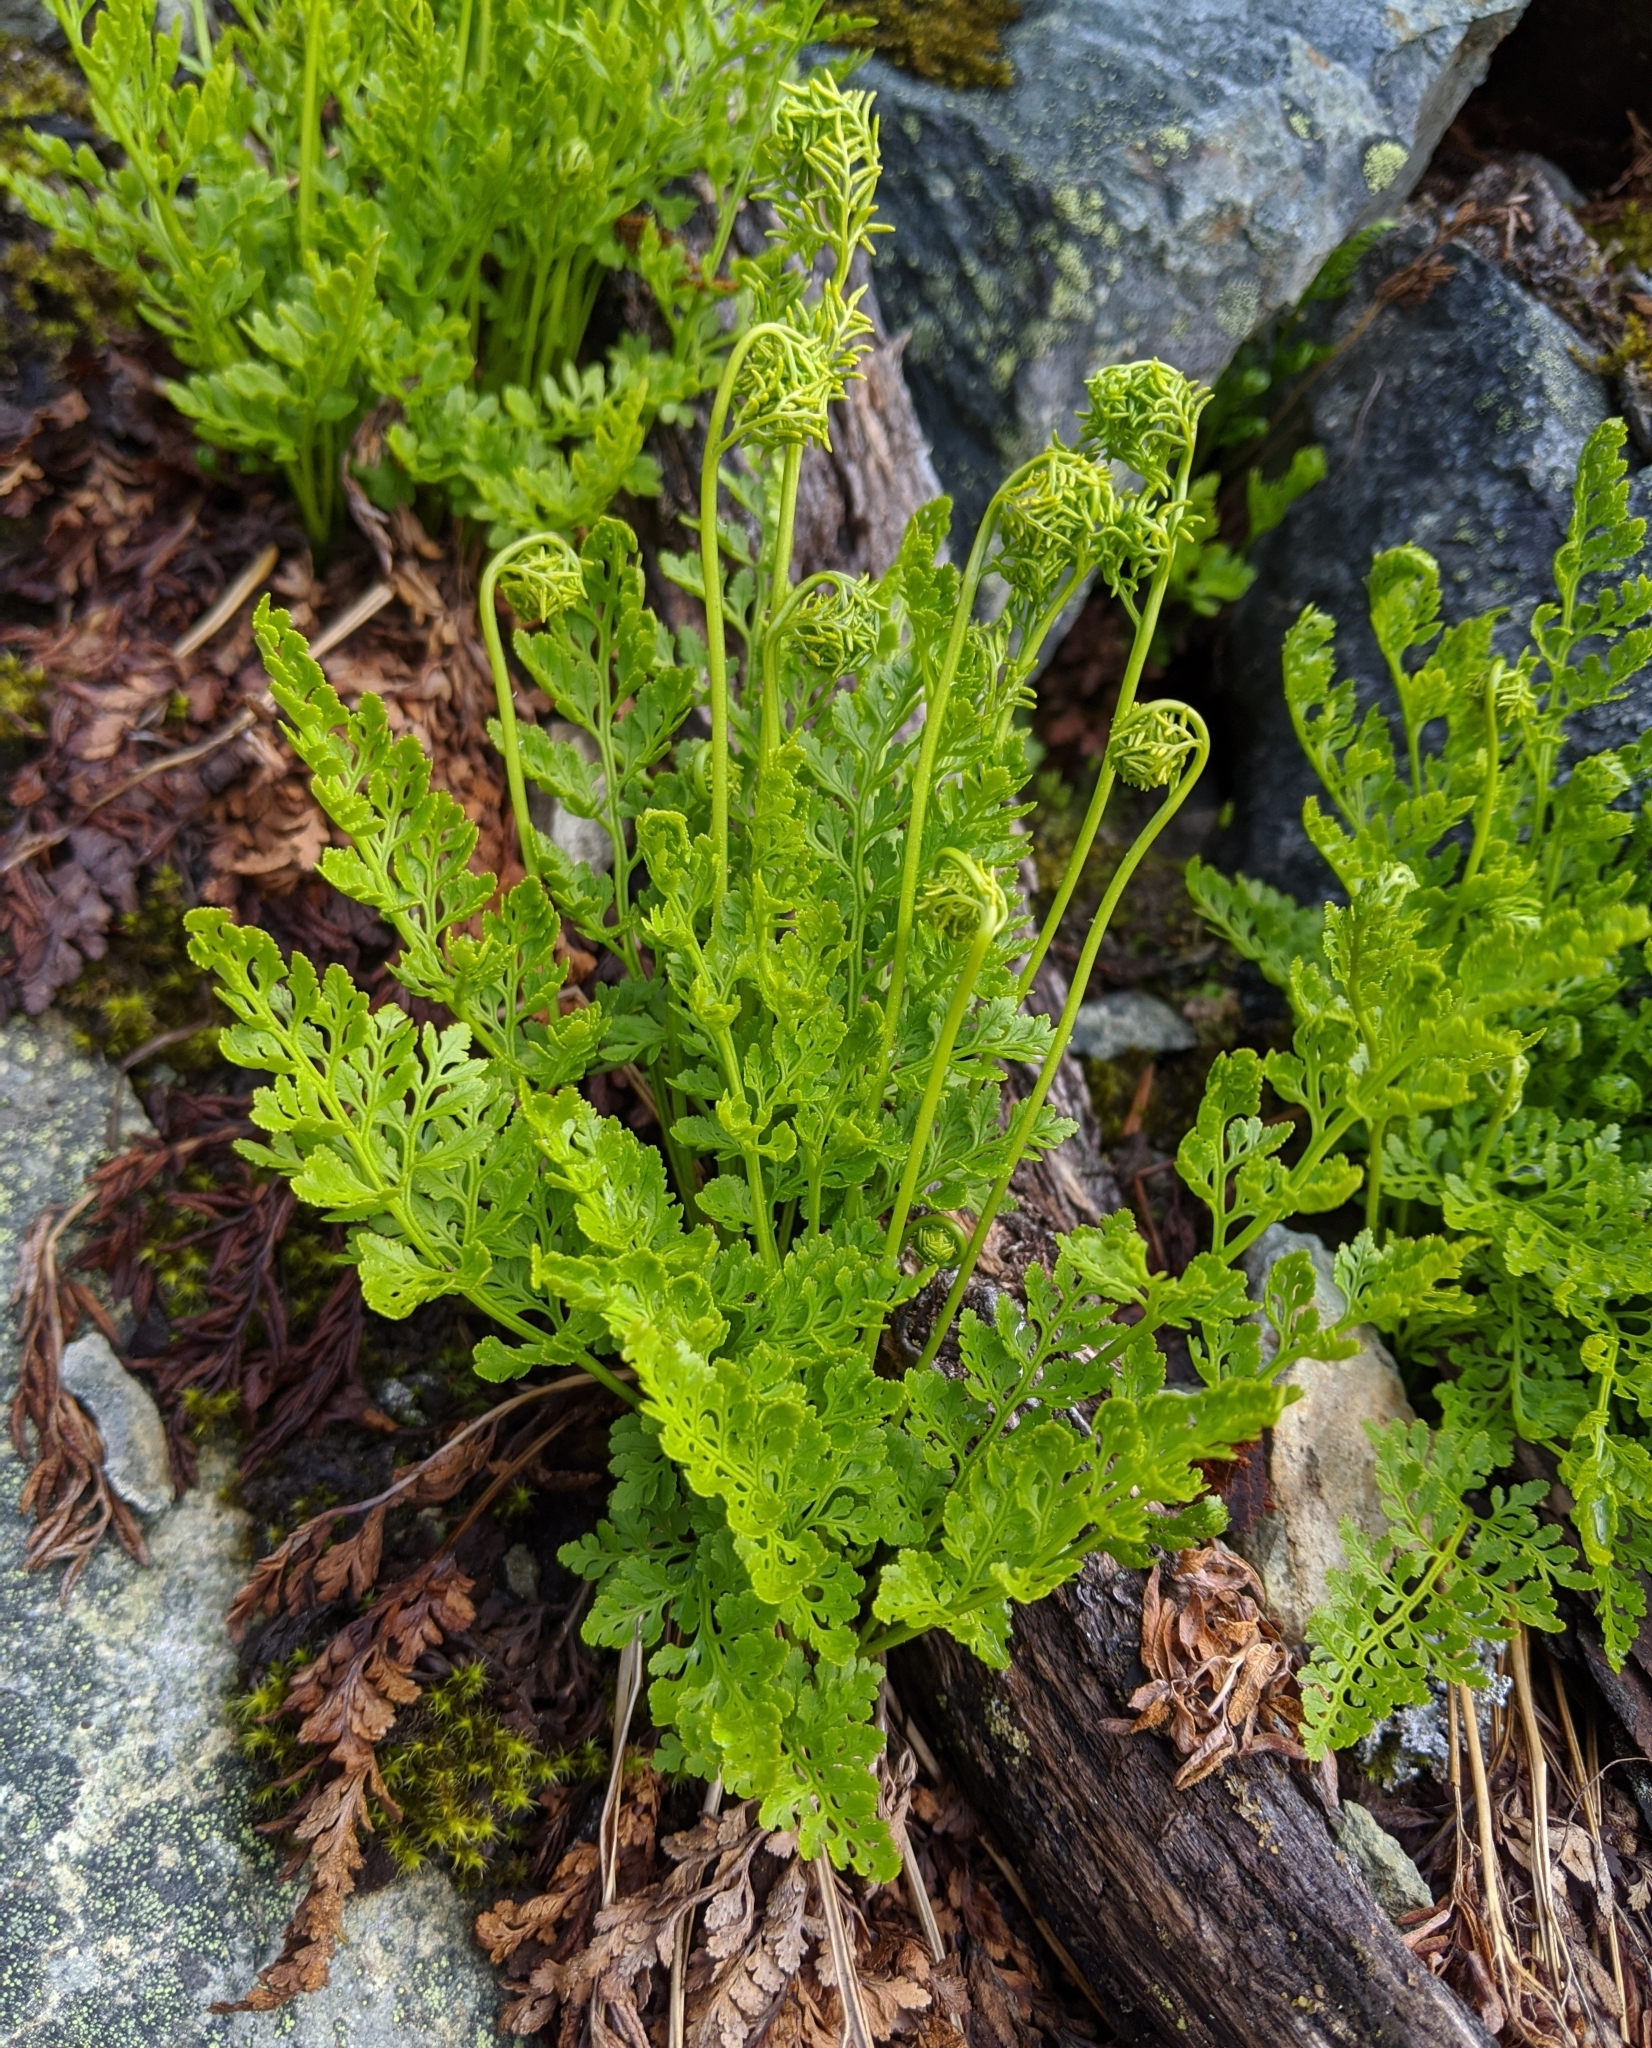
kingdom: Plantae
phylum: Tracheophyta
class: Polypodiopsida
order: Polypodiales
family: Pteridaceae
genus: Cryptogramma
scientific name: Cryptogramma acrostichoides
